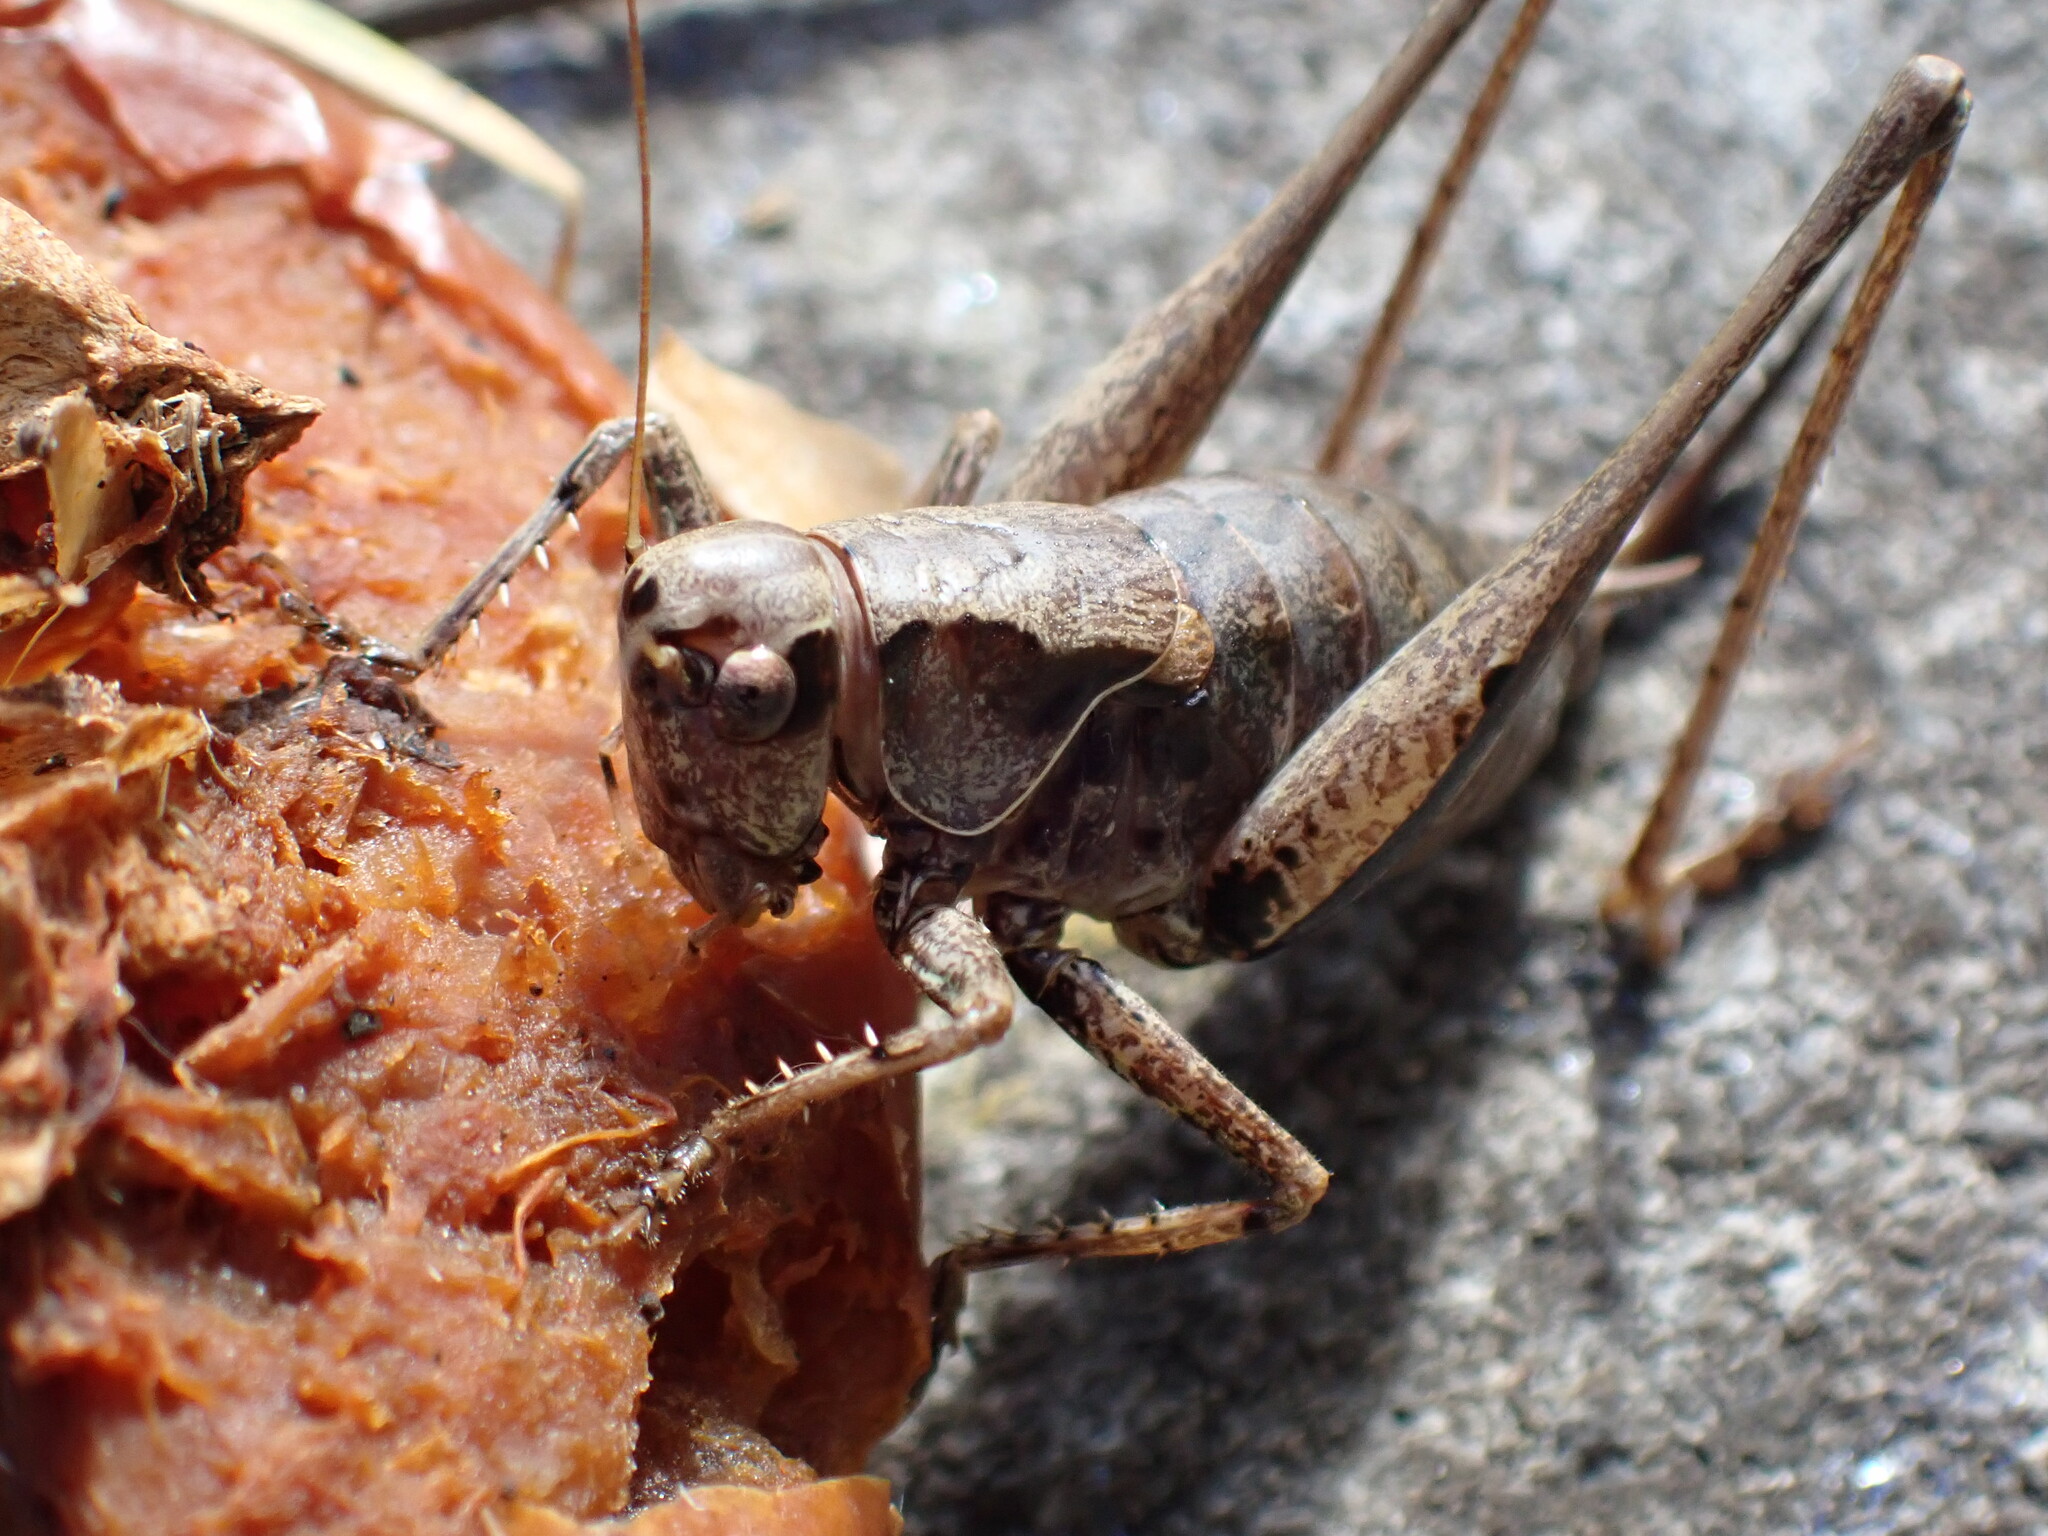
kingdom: Animalia
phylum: Arthropoda
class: Insecta
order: Orthoptera
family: Tettigoniidae
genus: Pholidoptera
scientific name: Pholidoptera griseoaptera
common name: Dark bush-cricket
